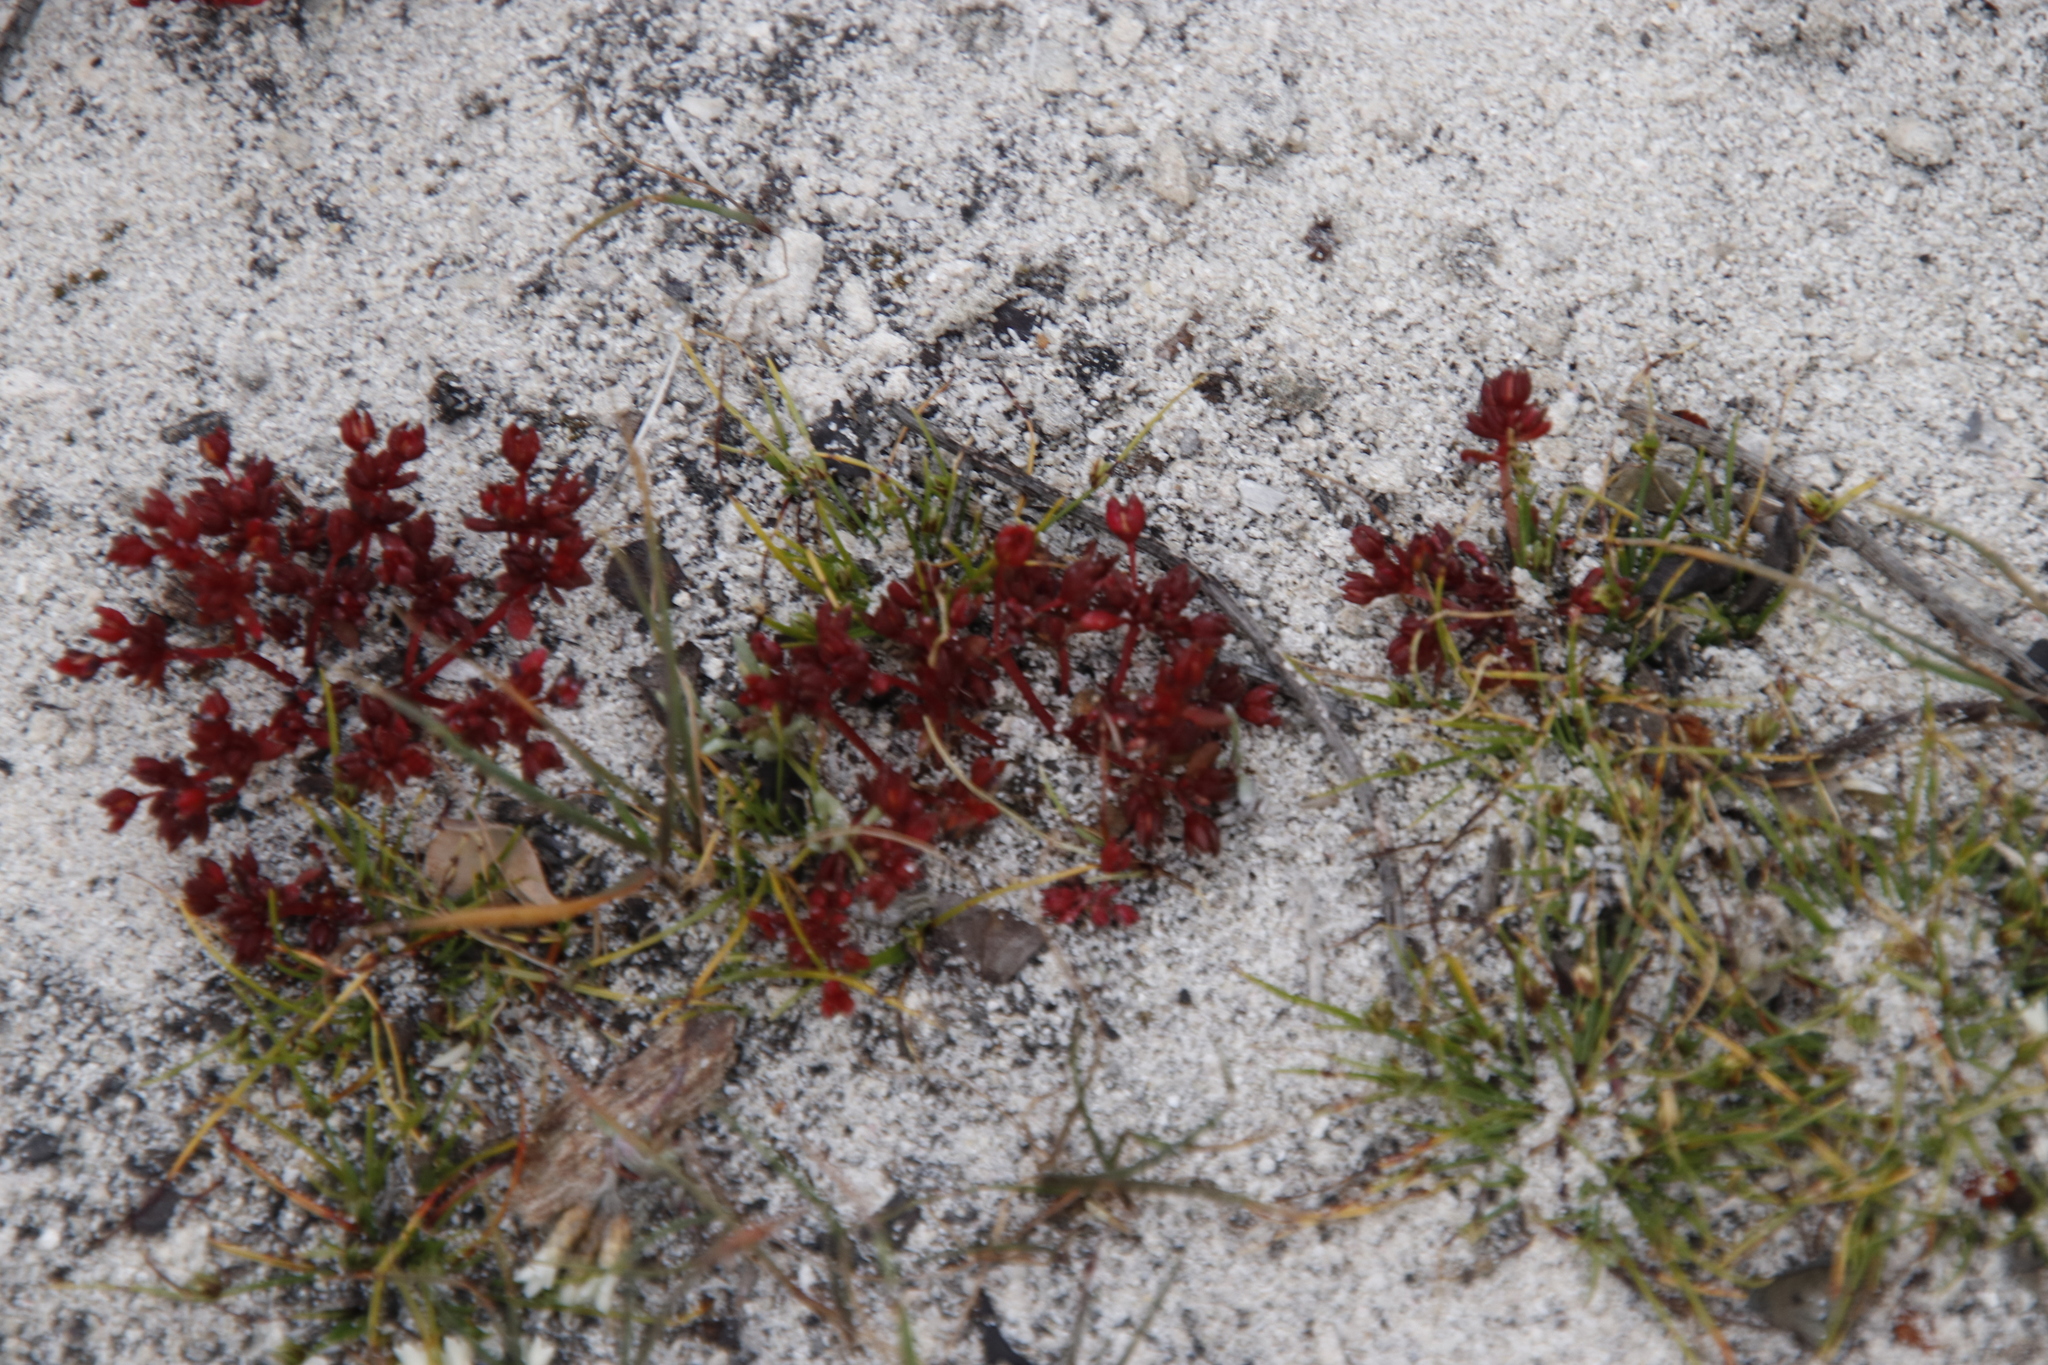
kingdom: Plantae
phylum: Tracheophyta
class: Magnoliopsida
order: Saxifragales
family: Crassulaceae
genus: Crassula
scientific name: Crassula expansa
